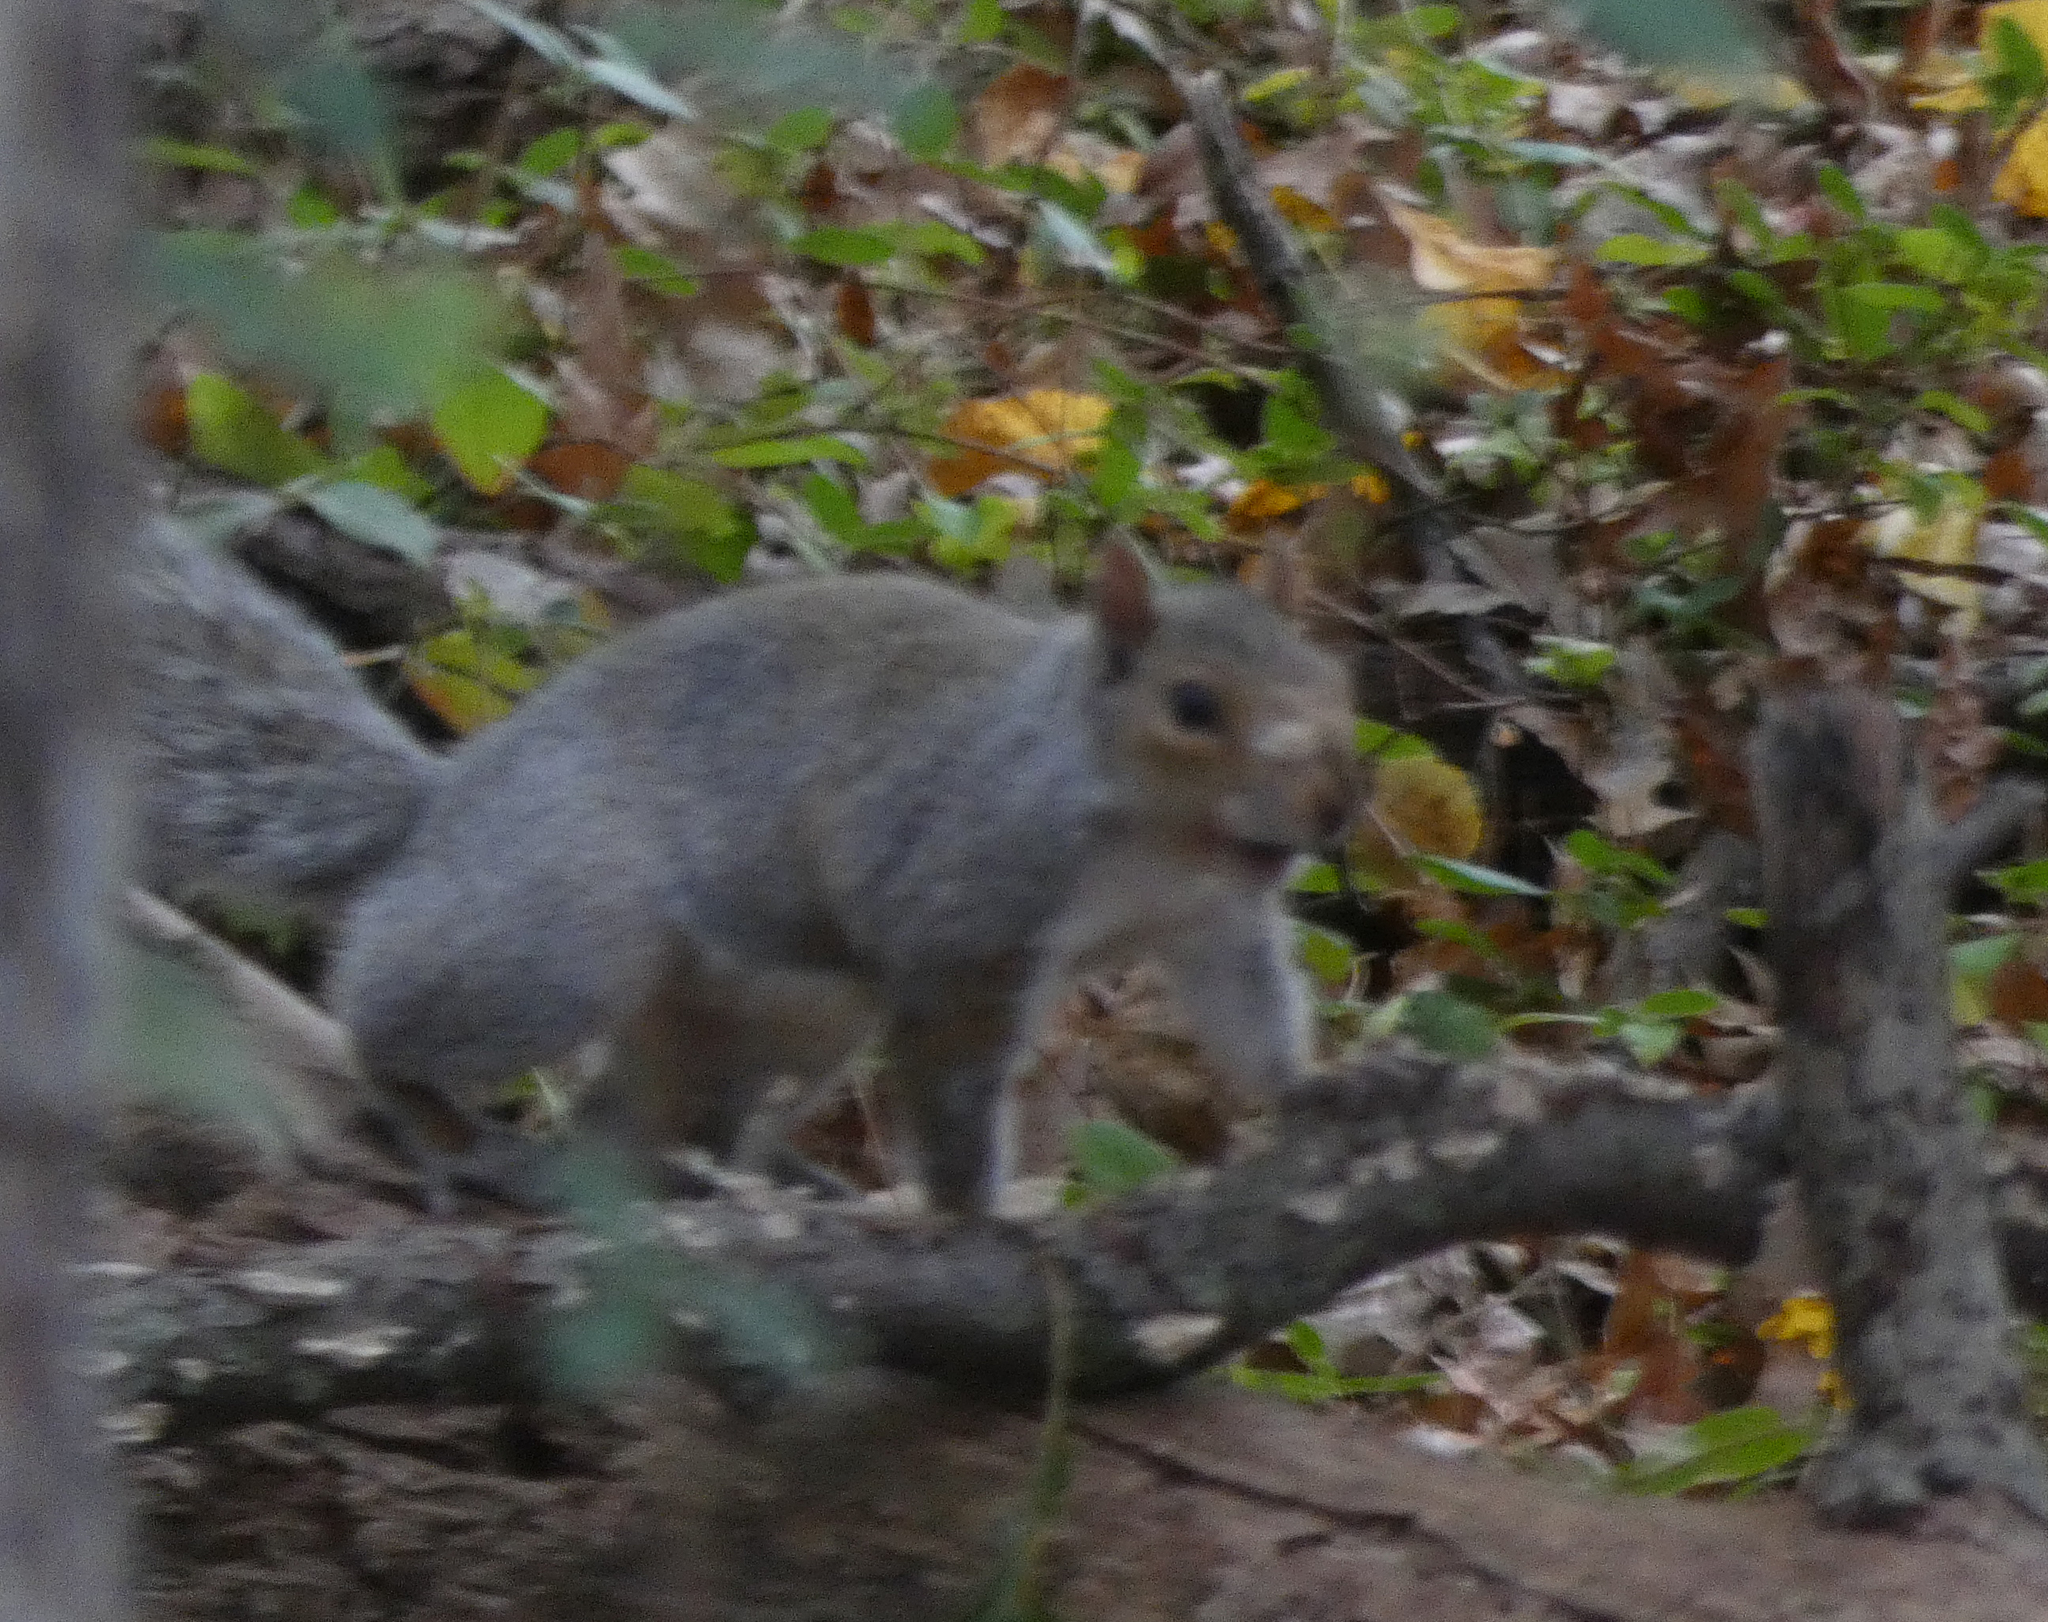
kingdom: Animalia
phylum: Chordata
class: Mammalia
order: Rodentia
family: Sciuridae
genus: Sciurus
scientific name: Sciurus carolinensis
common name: Eastern gray squirrel
